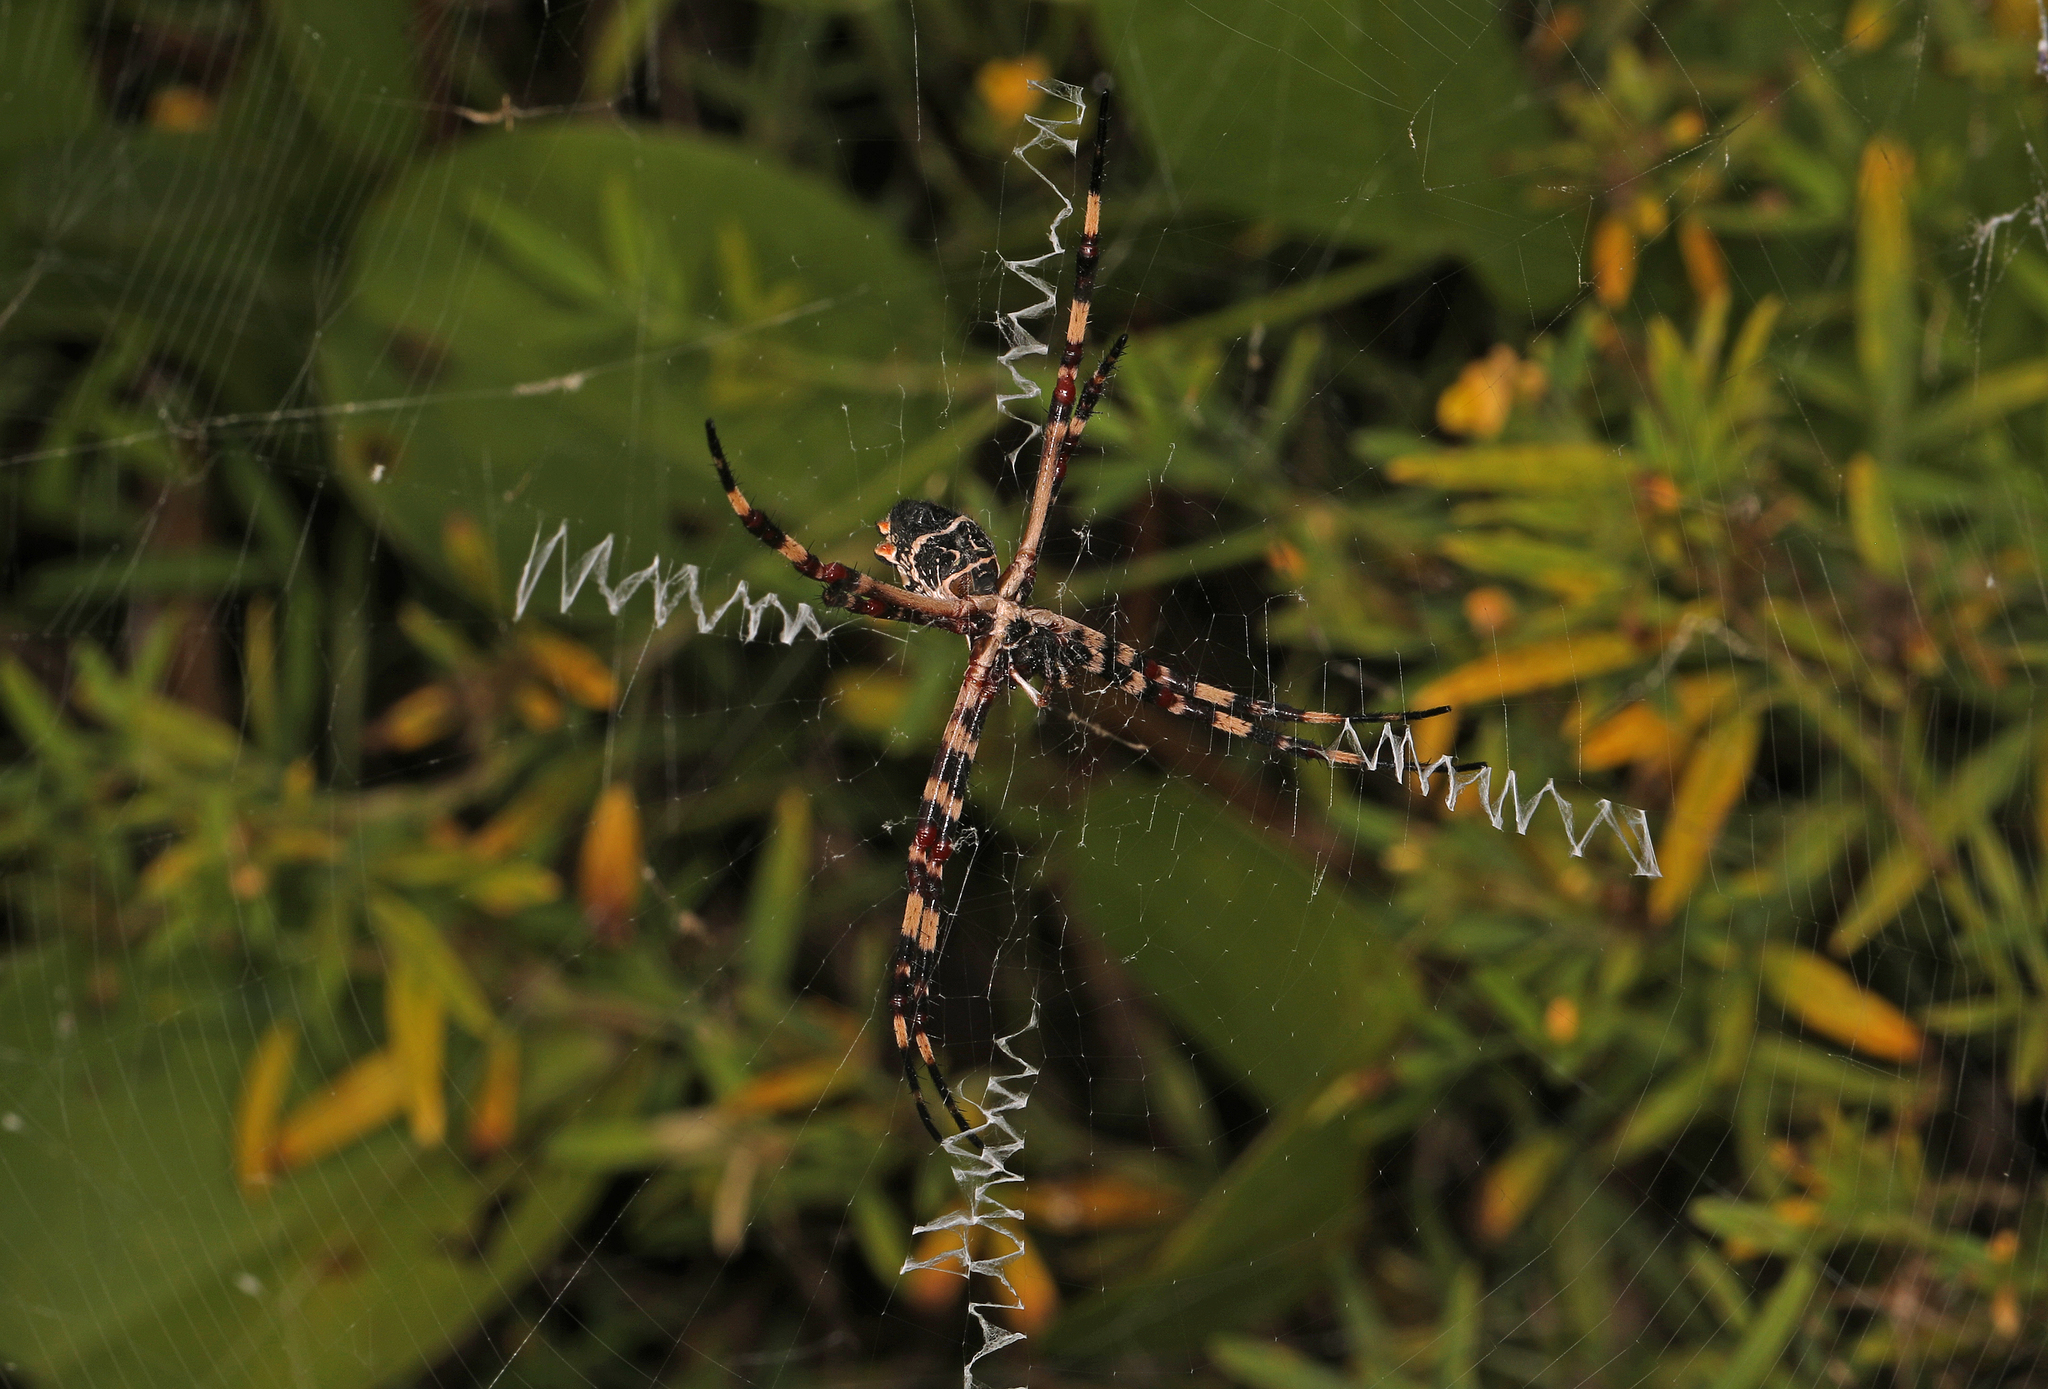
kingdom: Animalia
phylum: Arthropoda
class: Arachnida
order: Araneae
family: Araneidae
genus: Argiope
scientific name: Argiope argentata
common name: Orb weavers
